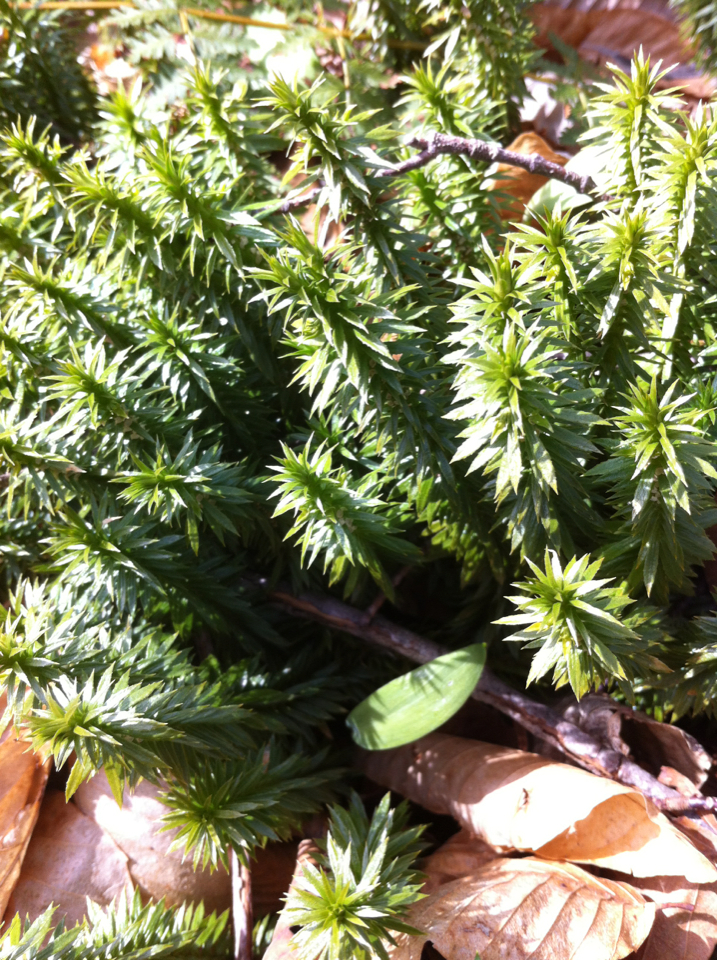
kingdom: Plantae
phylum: Tracheophyta
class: Lycopodiopsida
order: Lycopodiales
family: Lycopodiaceae
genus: Huperzia
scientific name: Huperzia lucidula
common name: Shining clubmoss
